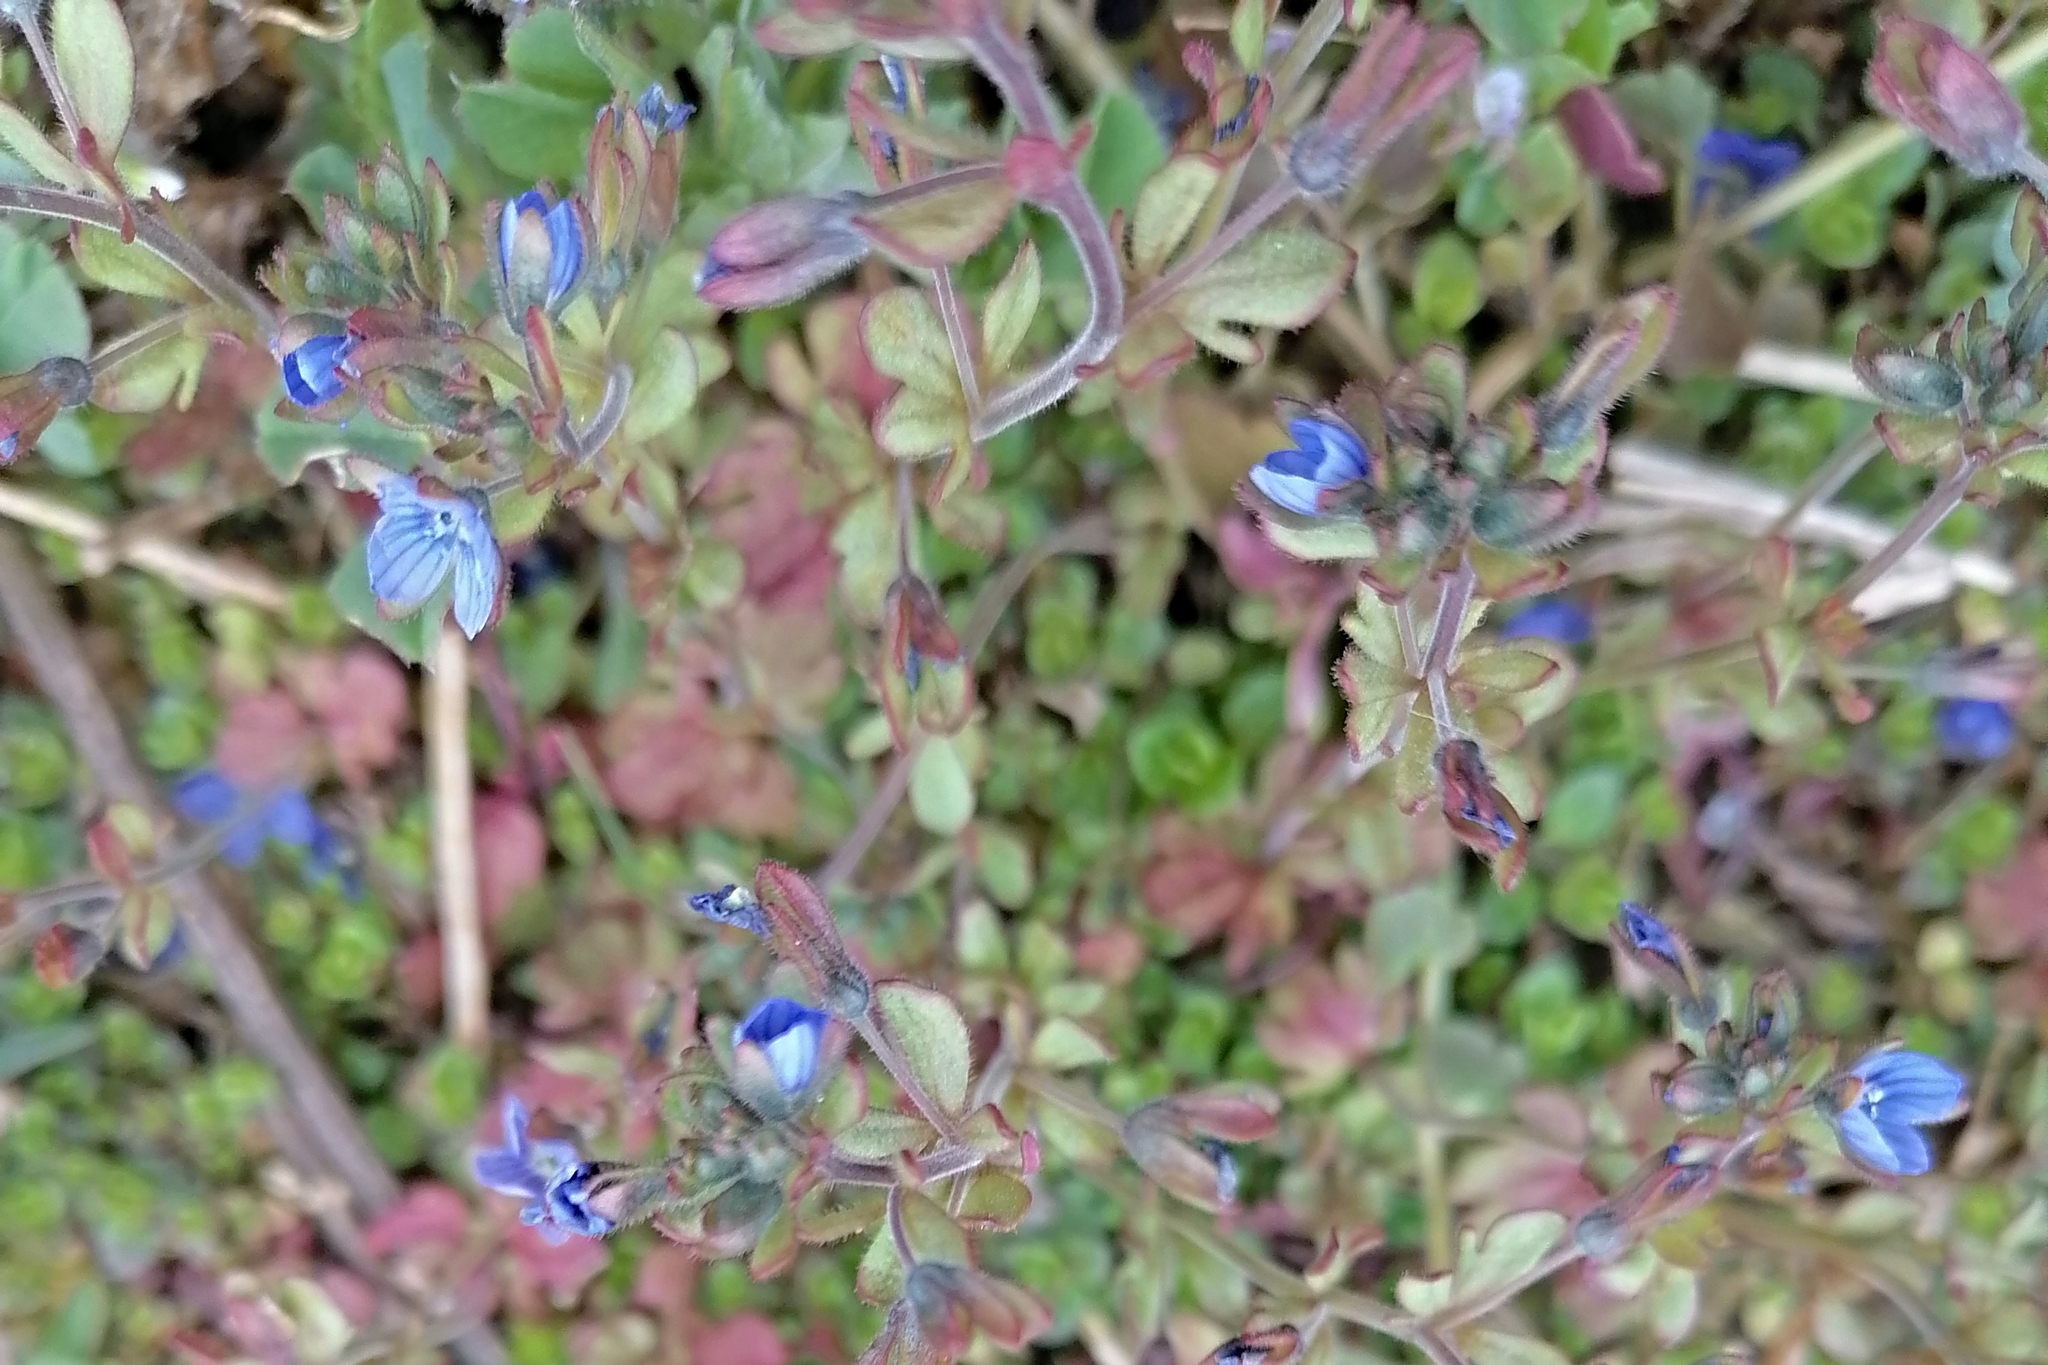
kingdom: Plantae
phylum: Tracheophyta
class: Magnoliopsida
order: Lamiales
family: Plantaginaceae
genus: Veronica
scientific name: Veronica triphyllos
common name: Fingered speedwell
